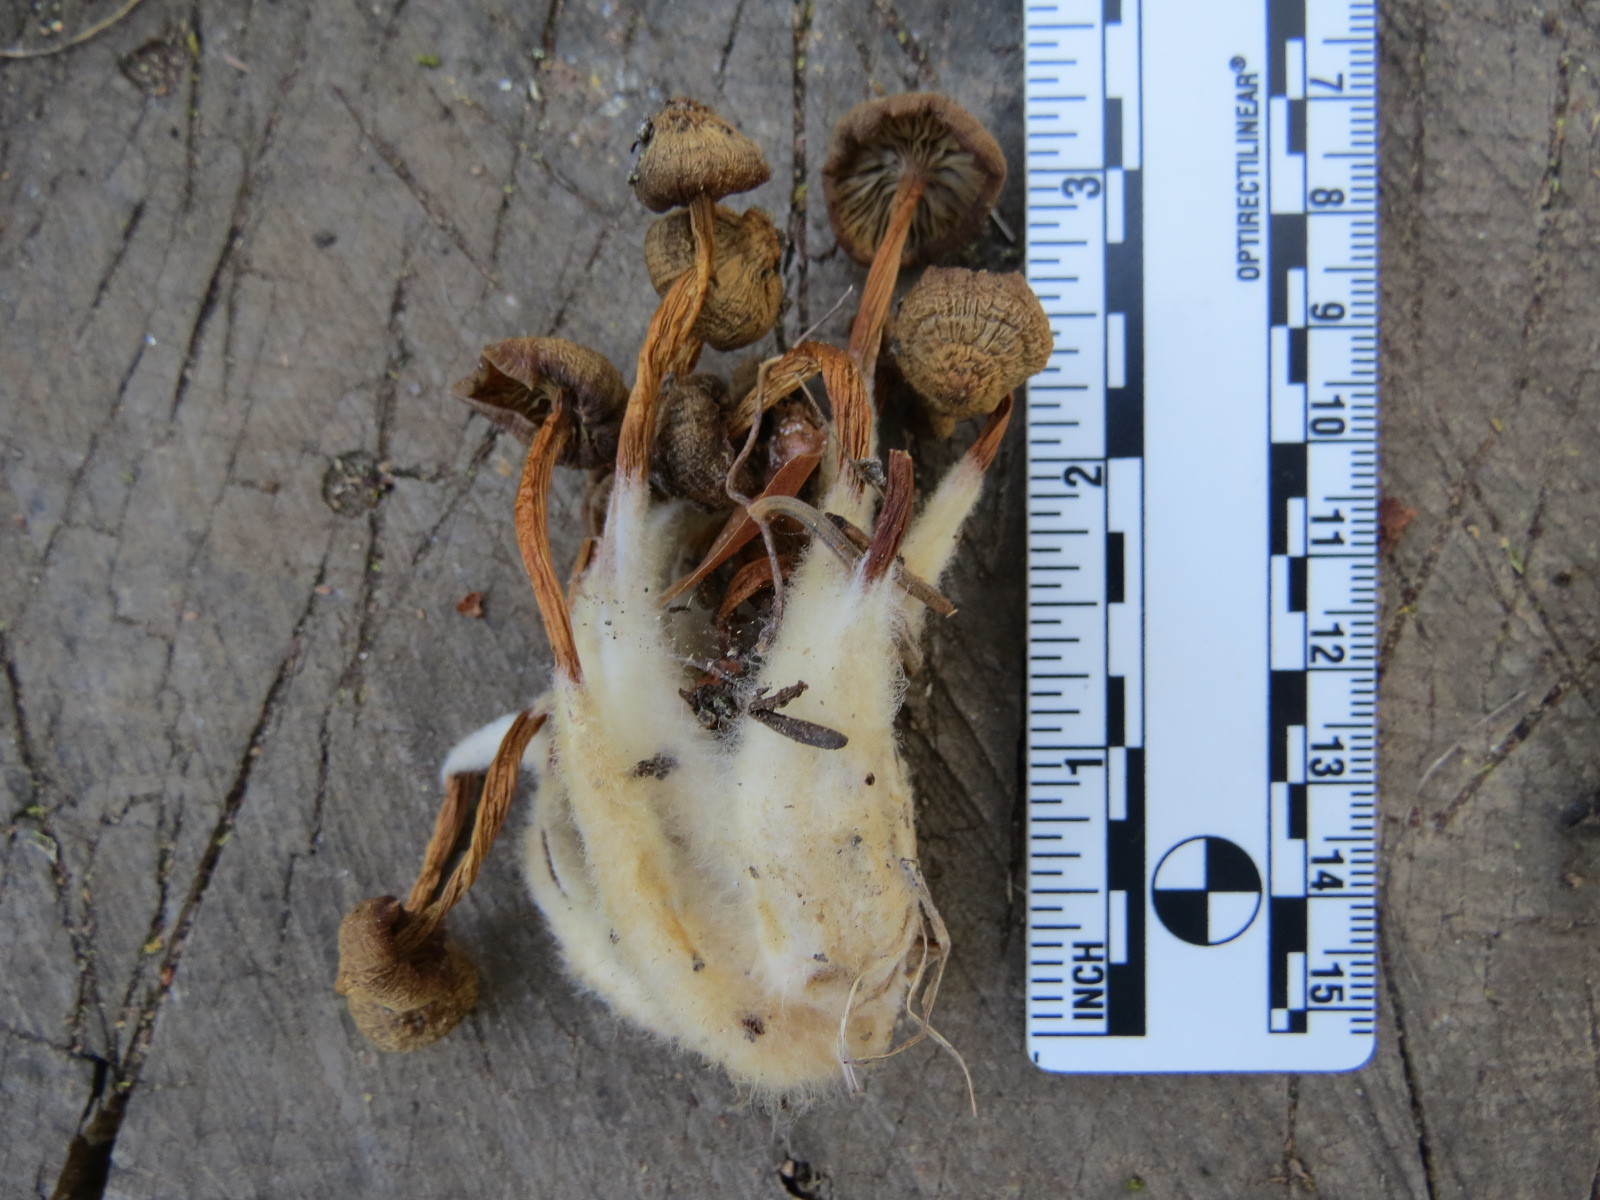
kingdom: Fungi
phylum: Basidiomycota
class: Agaricomycetes
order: Agaricales
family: Mycenaceae
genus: Mycena
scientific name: Mycena overholtsii
